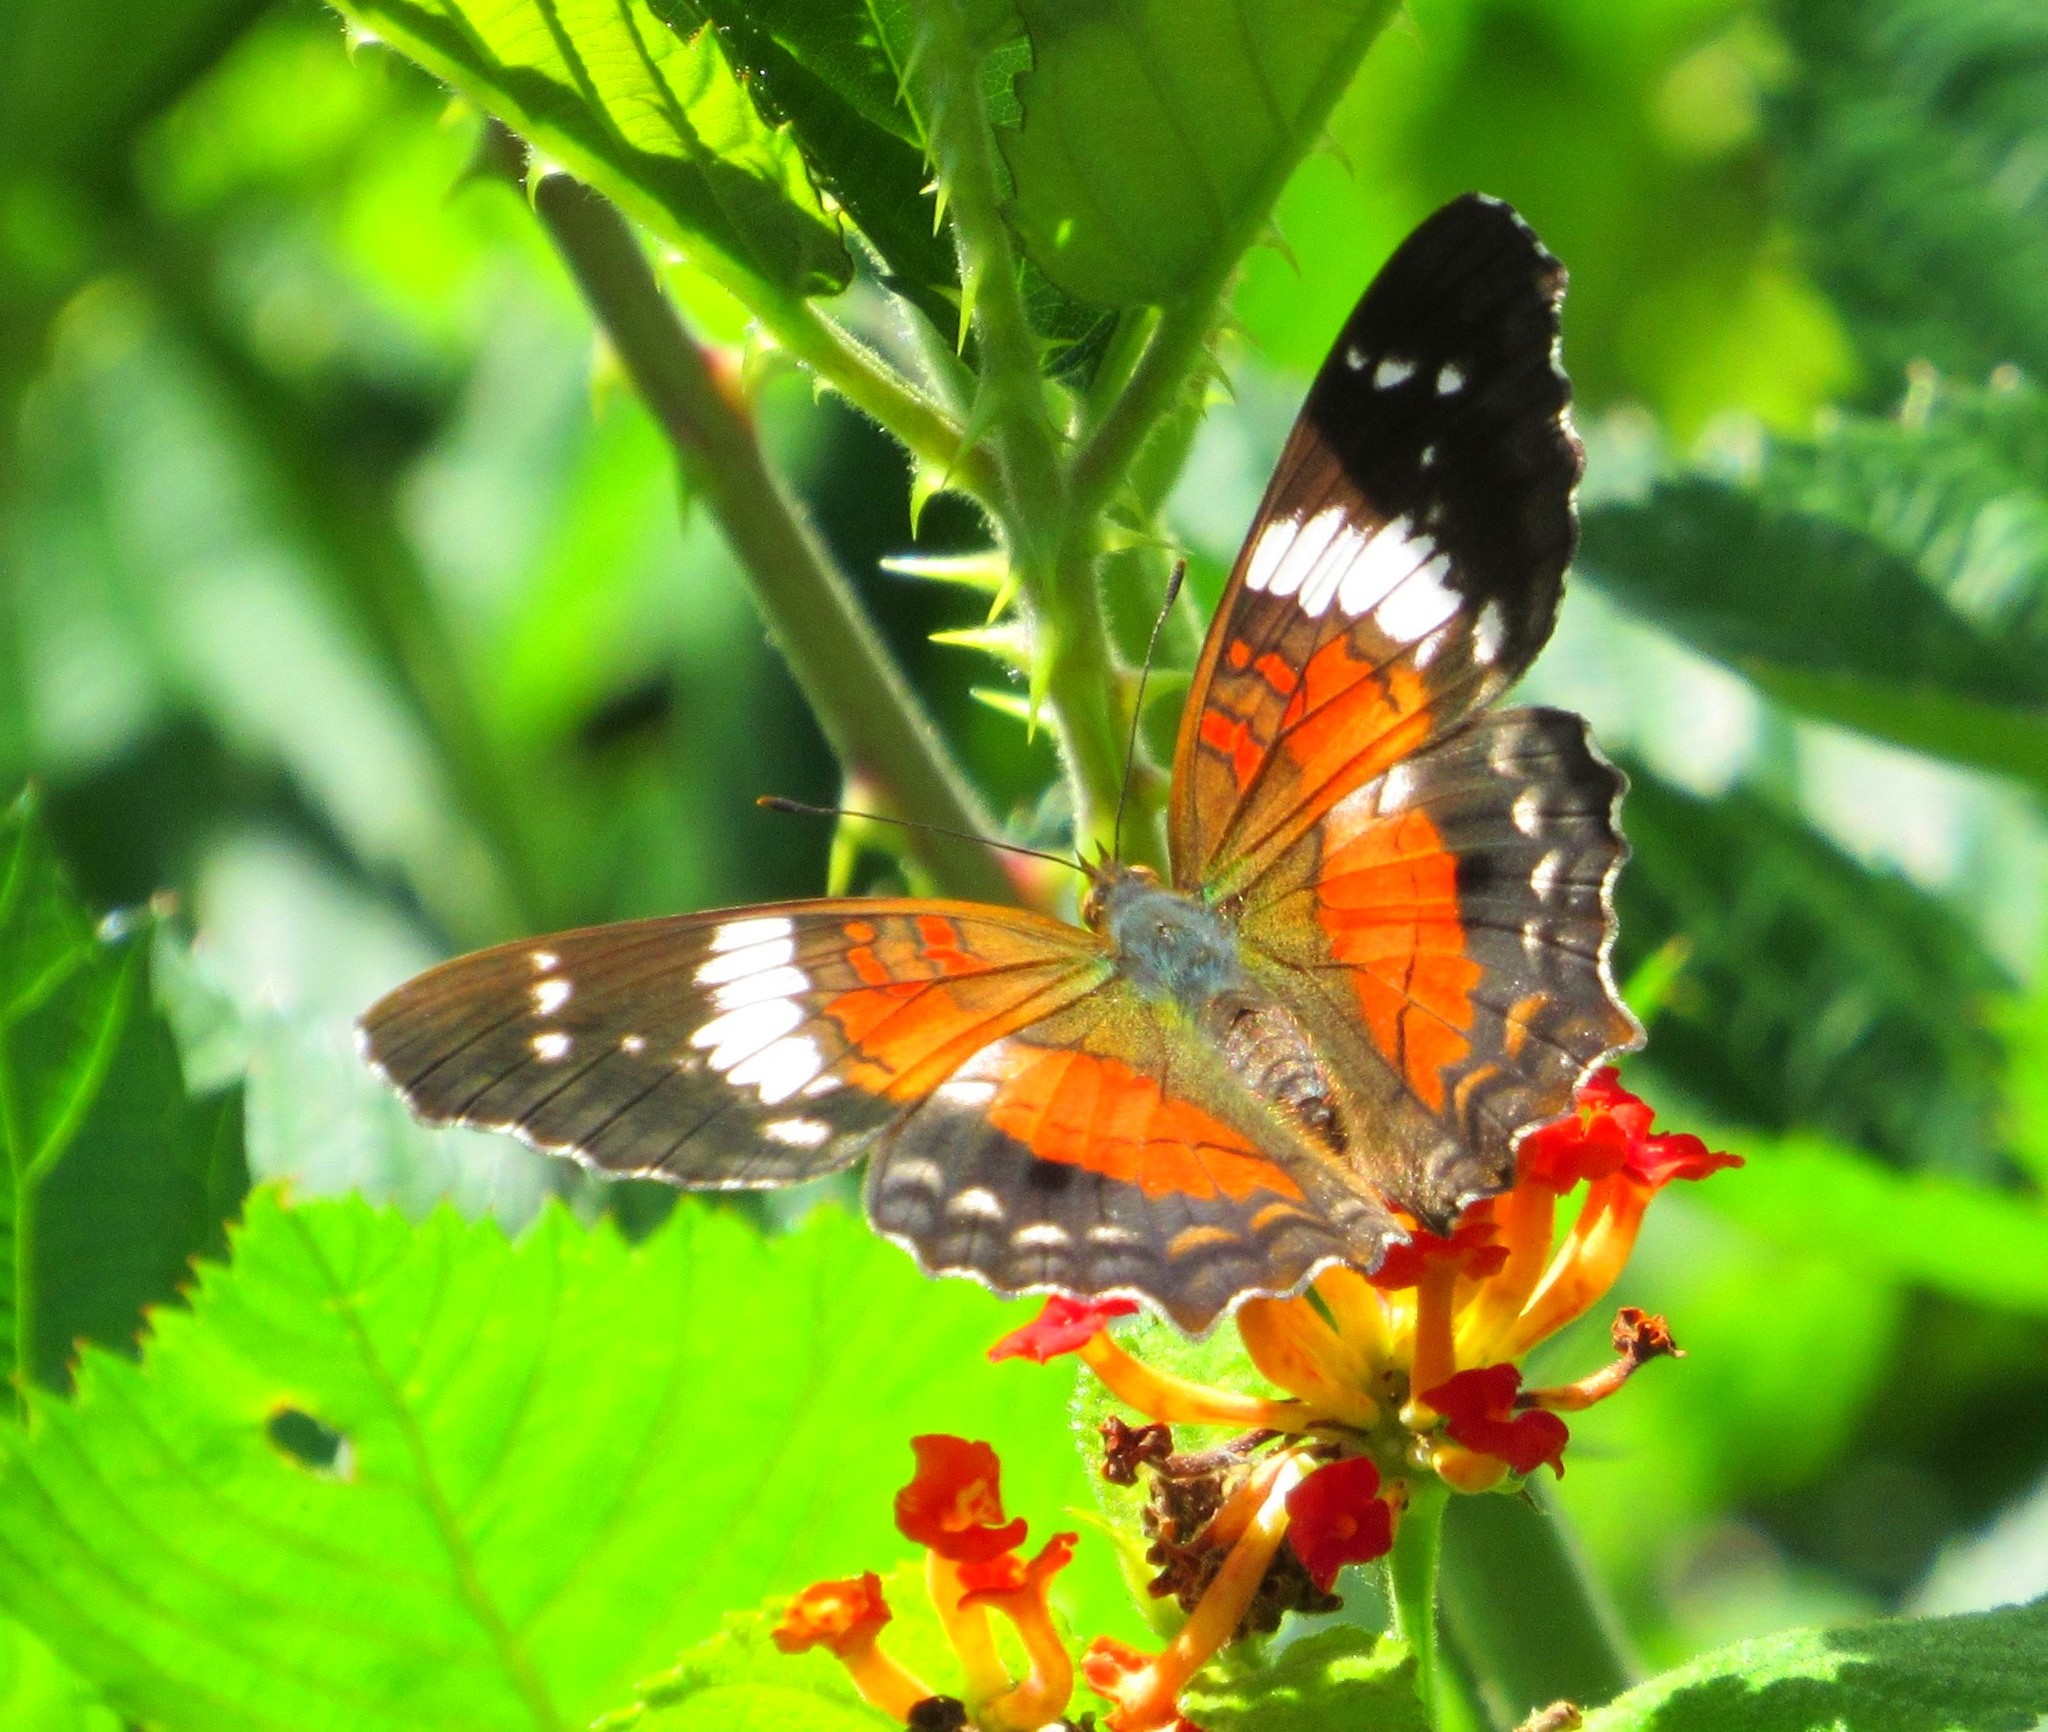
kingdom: Animalia
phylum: Arthropoda
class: Insecta
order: Lepidoptera
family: Nymphalidae
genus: Anartia
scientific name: Anartia amathea
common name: Red peacock
